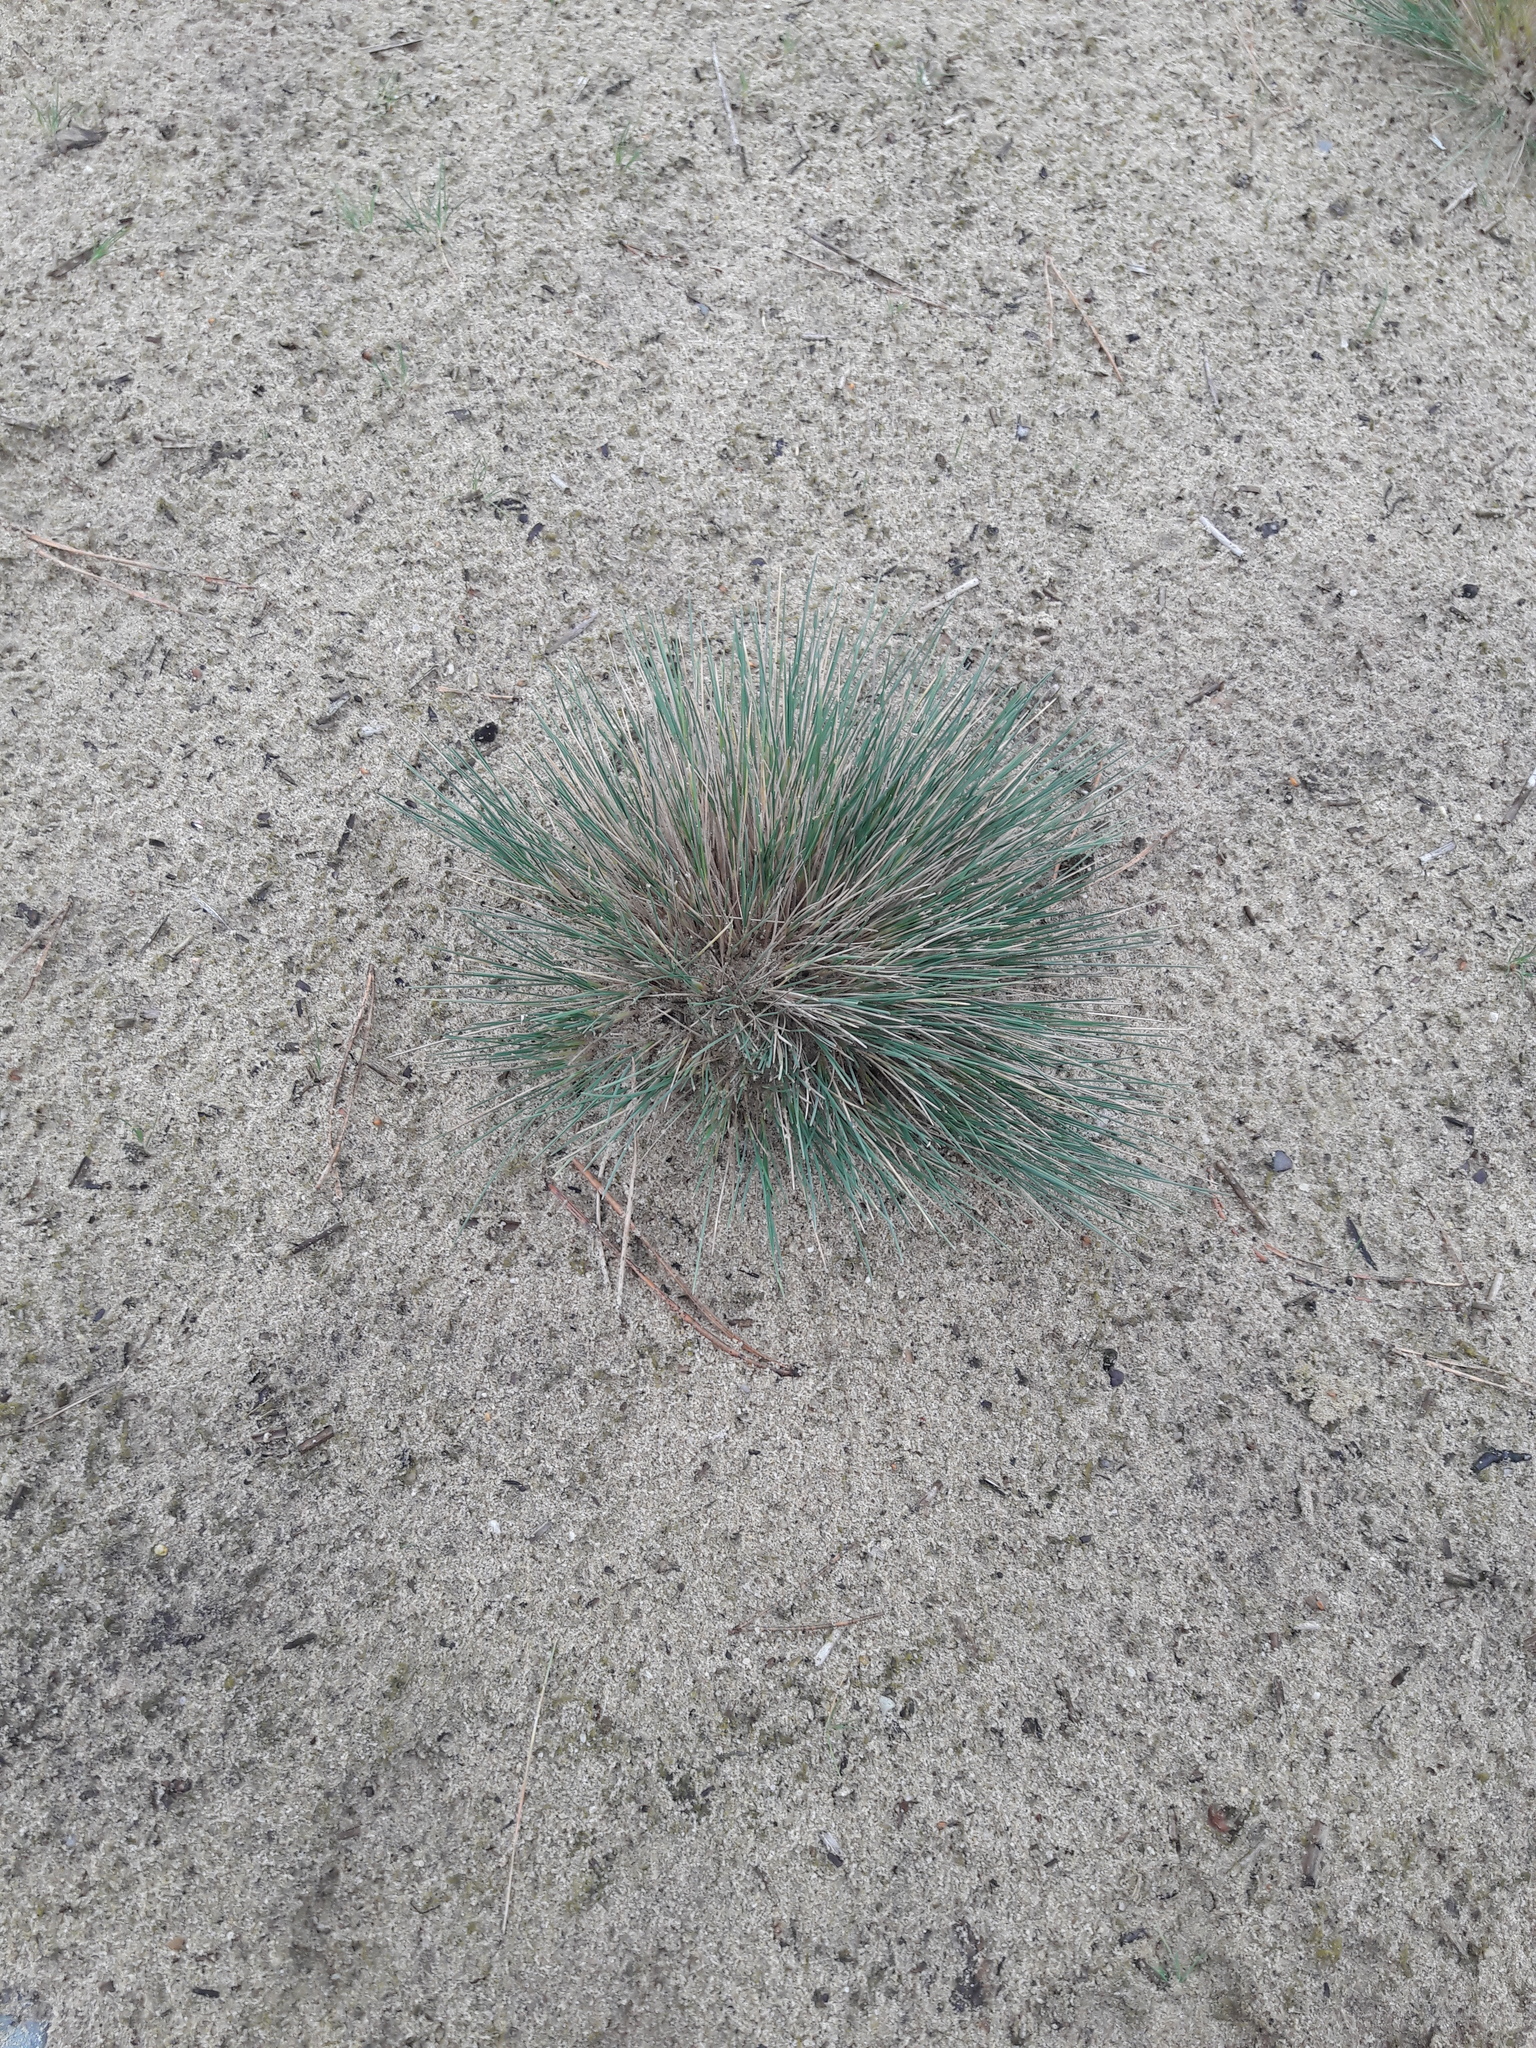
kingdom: Plantae
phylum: Tracheophyta
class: Liliopsida
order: Poales
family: Poaceae
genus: Corynephorus
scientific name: Corynephorus canescens
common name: Grey hair-grass
